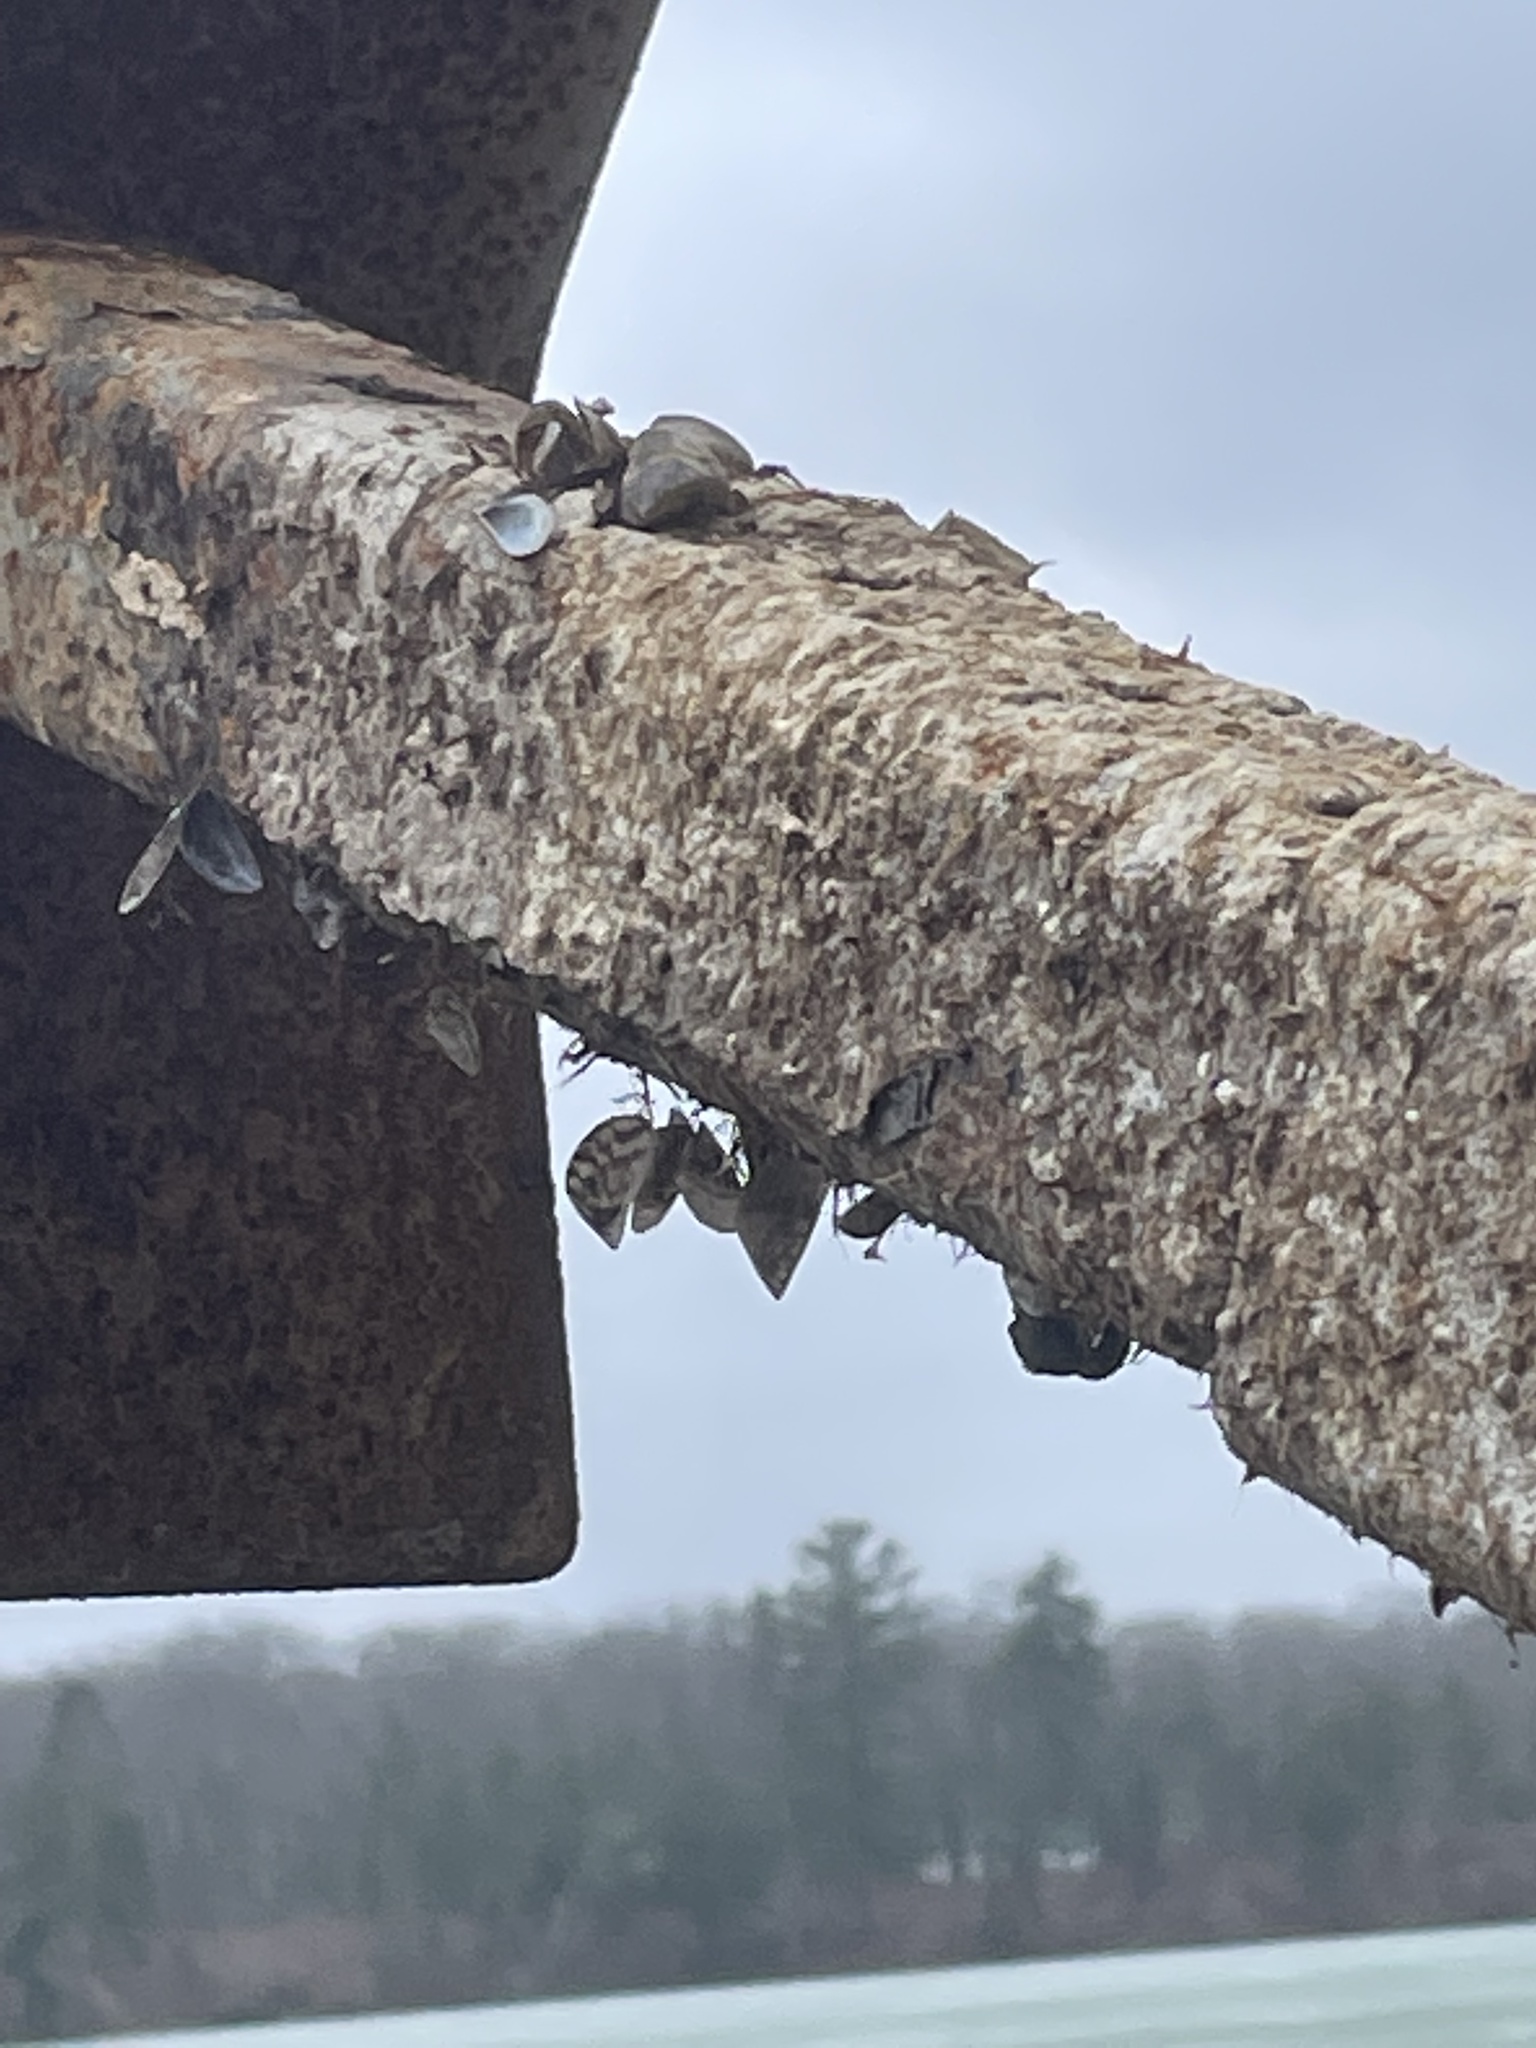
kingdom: Animalia
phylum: Mollusca
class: Bivalvia
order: Myida
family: Dreissenidae
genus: Dreissena
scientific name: Dreissena polymorpha
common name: Zebra mussel
